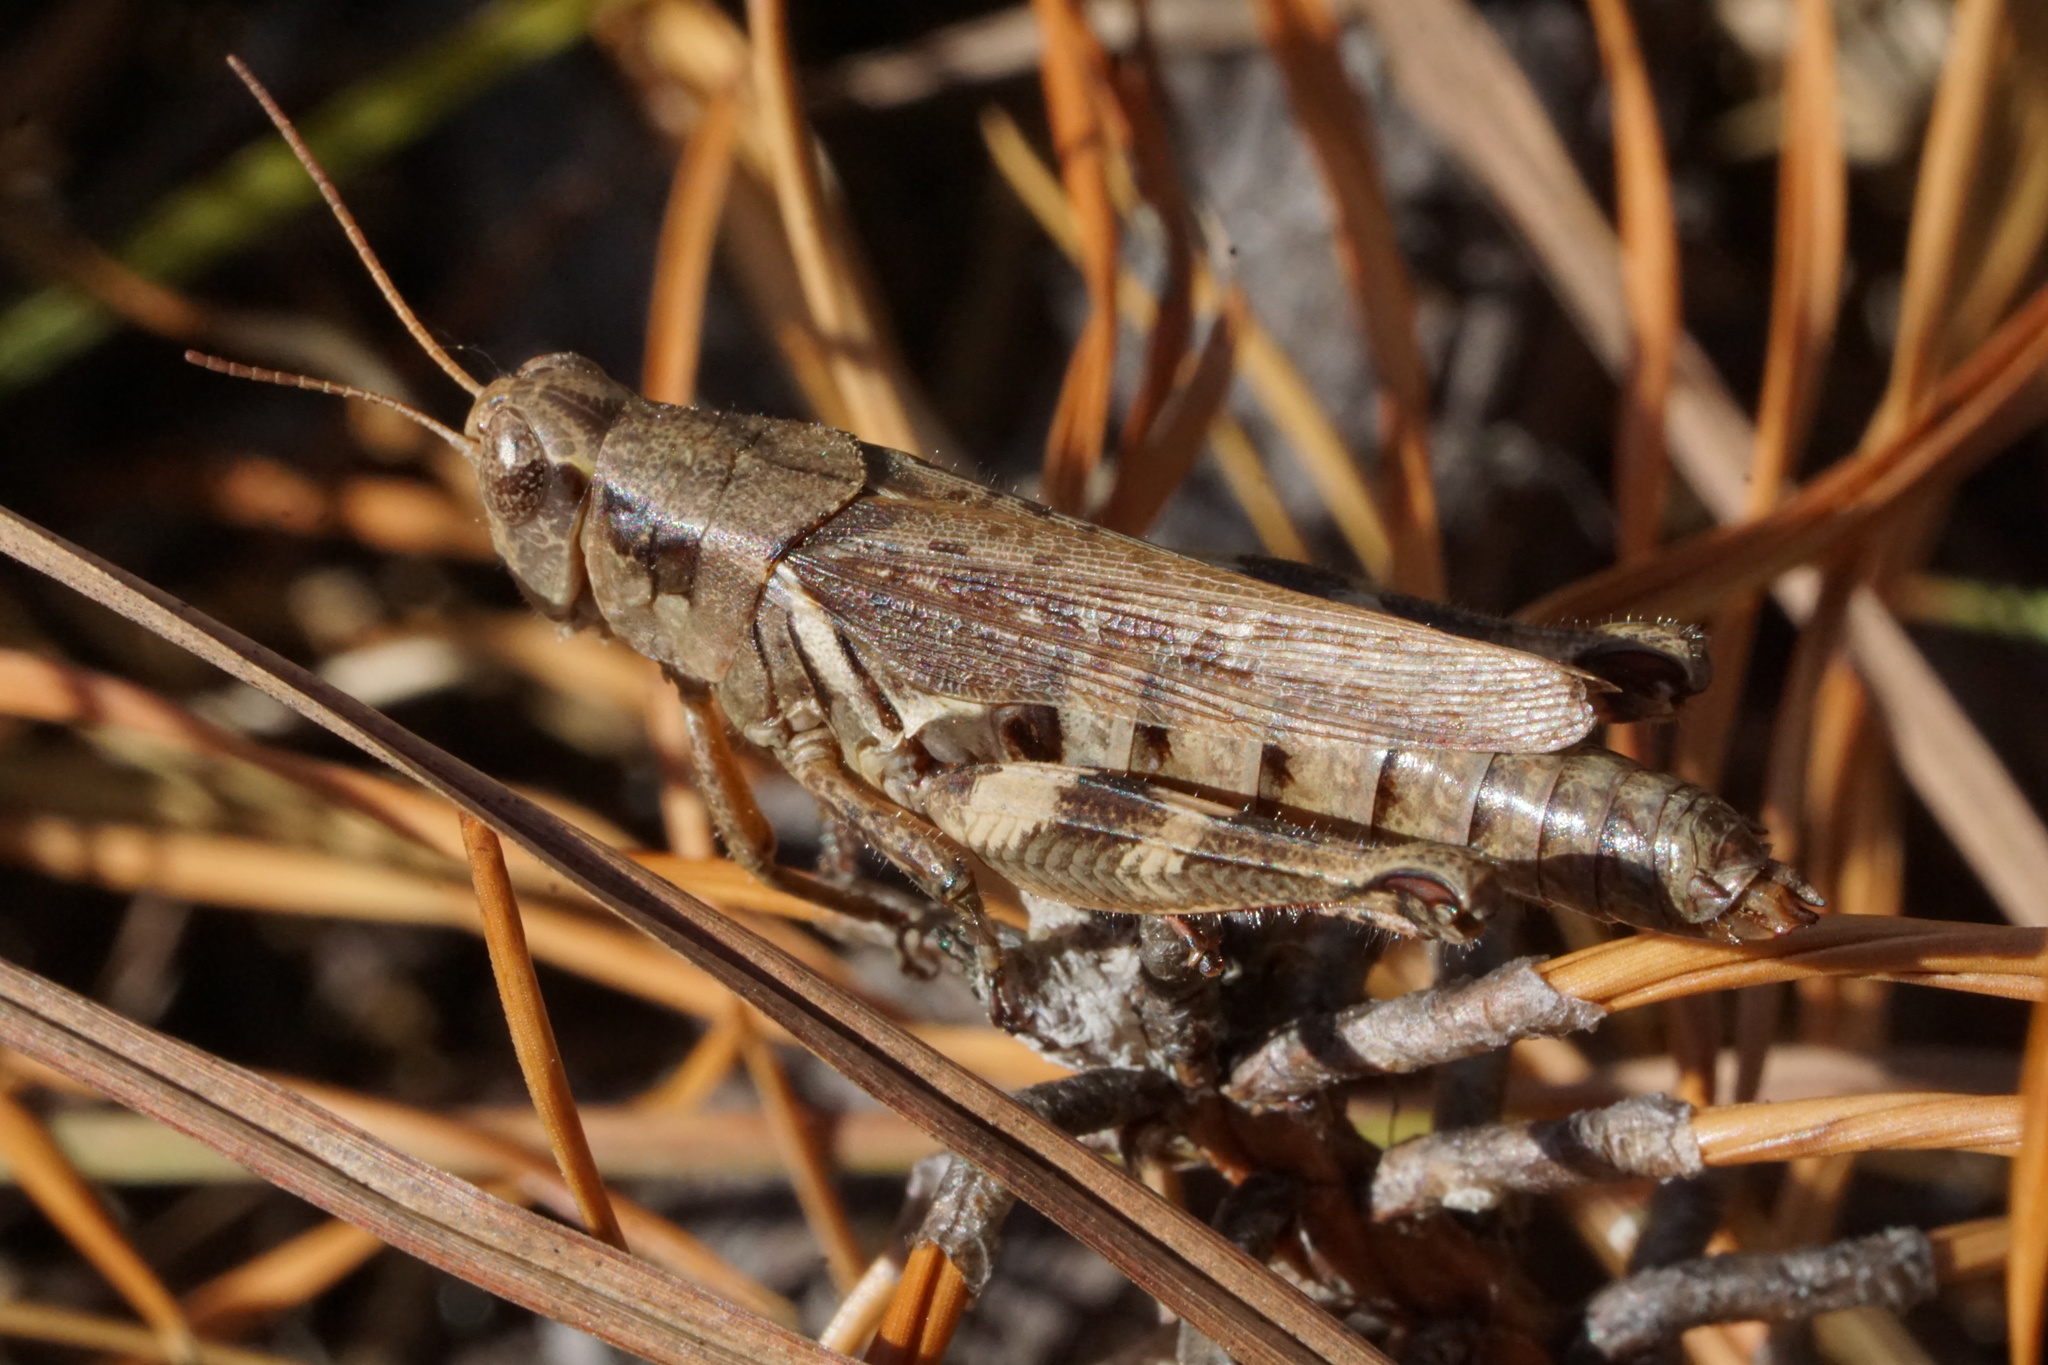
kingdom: Animalia
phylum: Arthropoda
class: Insecta
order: Orthoptera
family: Acrididae
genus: Melanoplus
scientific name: Melanoplus keeleri
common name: Keeler grasshopper
